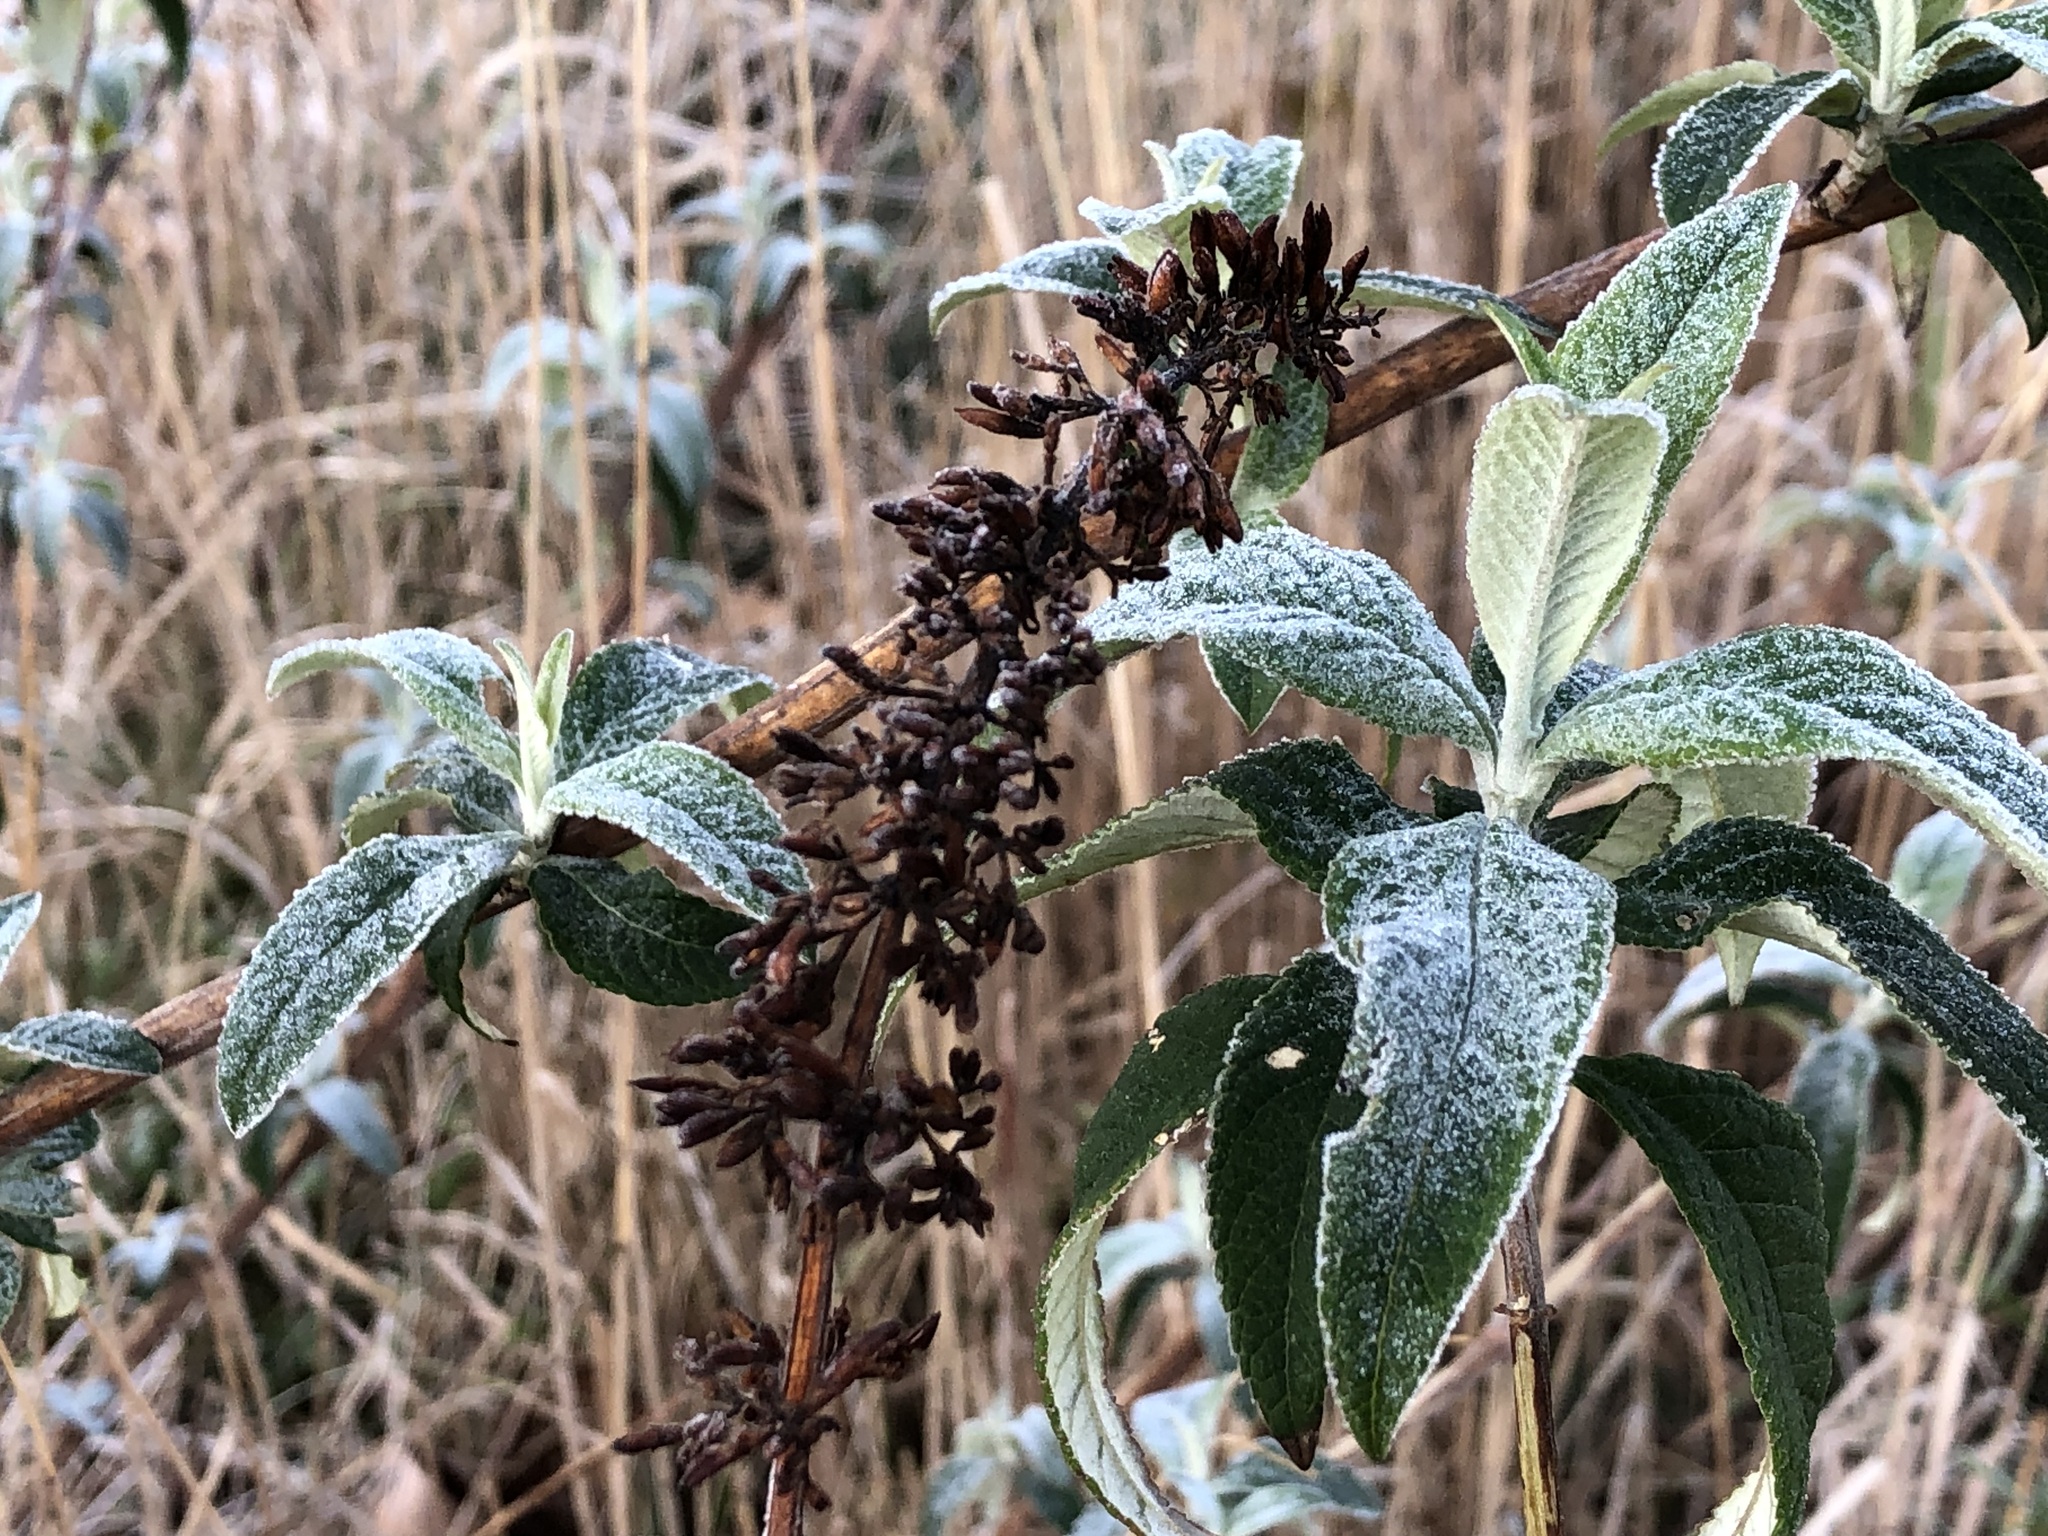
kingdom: Plantae
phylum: Tracheophyta
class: Magnoliopsida
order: Lamiales
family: Scrophulariaceae
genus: Buddleja
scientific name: Buddleja davidii
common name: Butterfly-bush
